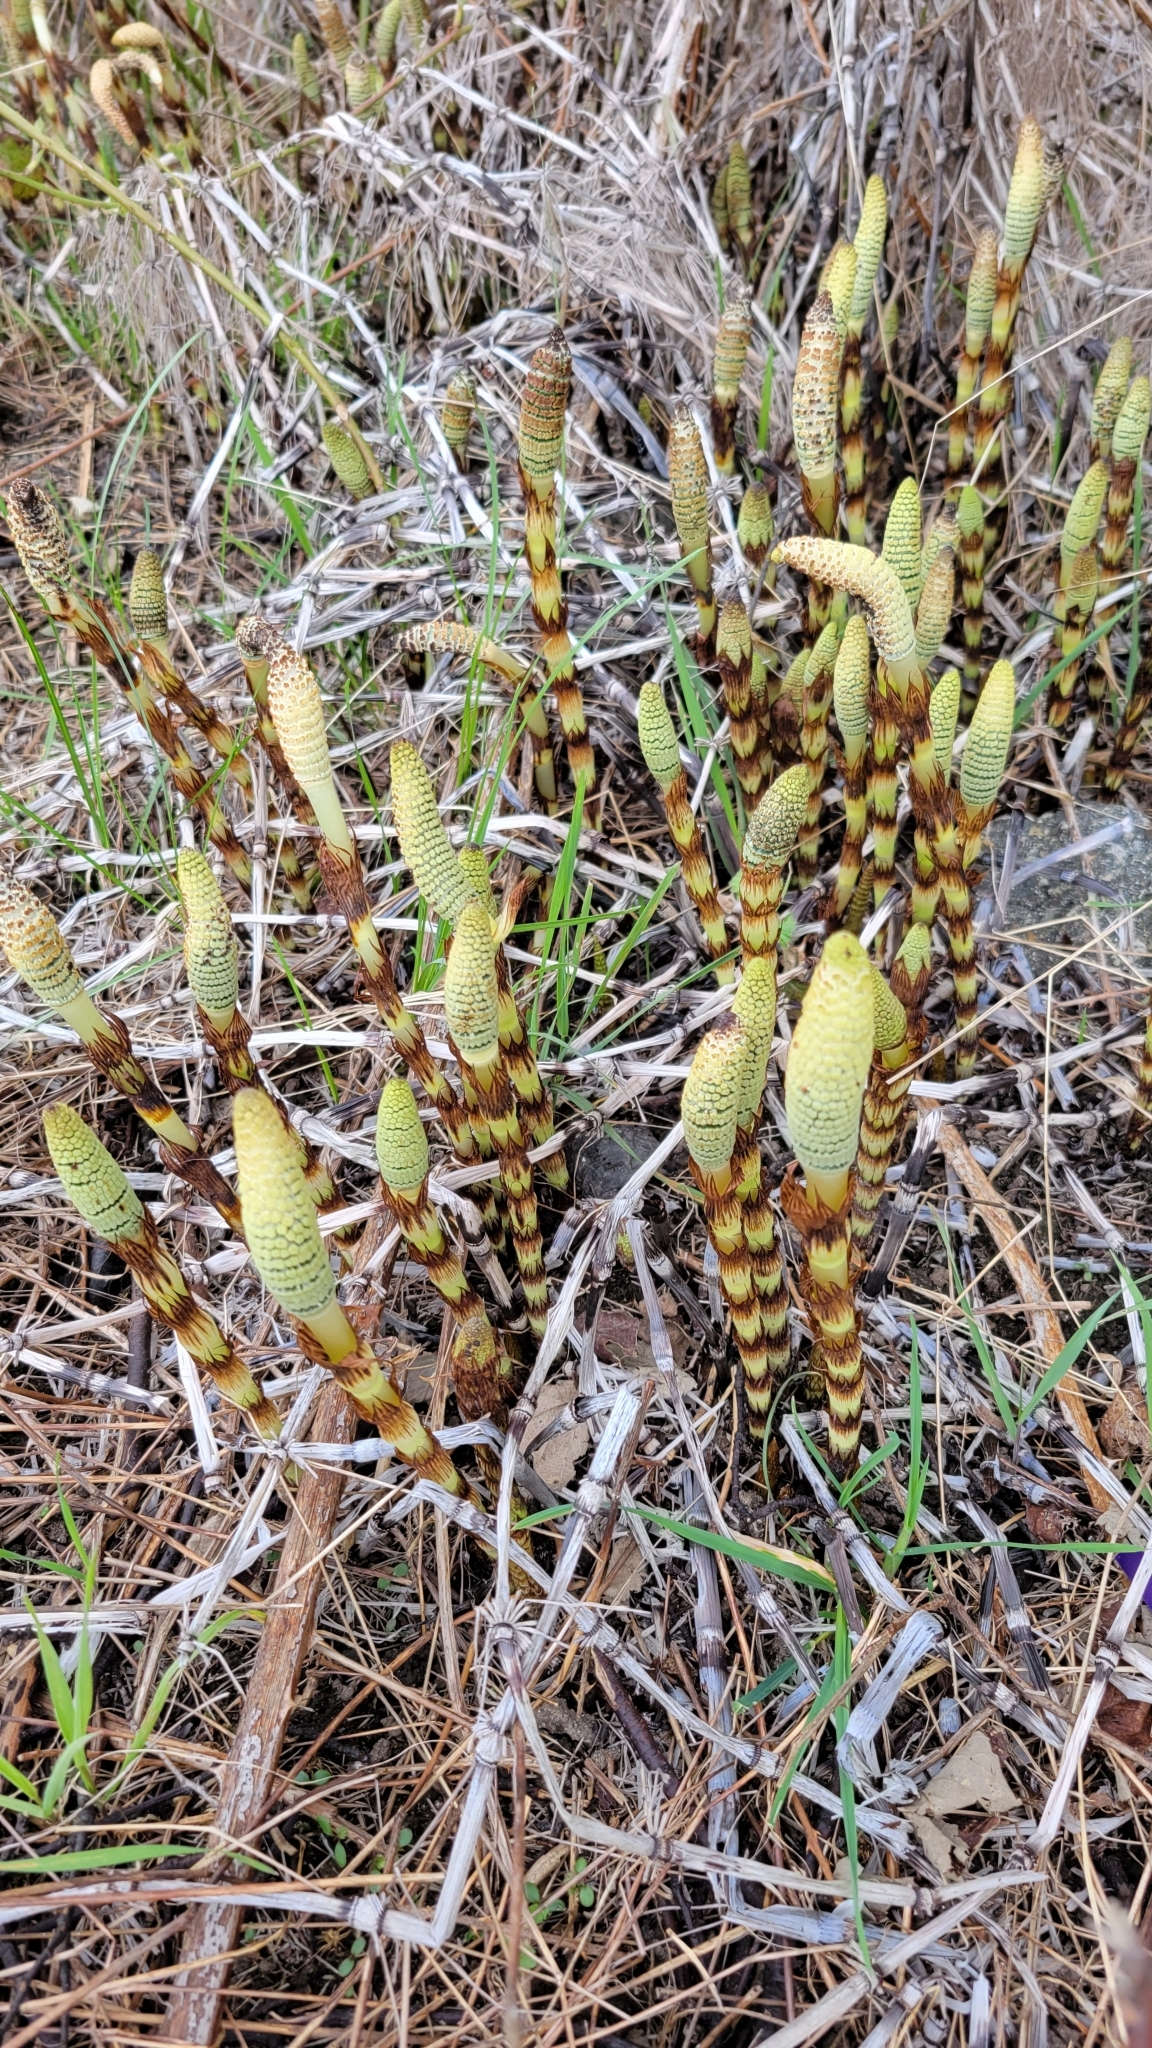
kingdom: Plantae
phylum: Tracheophyta
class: Polypodiopsida
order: Equisetales
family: Equisetaceae
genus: Equisetum
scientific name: Equisetum telmateia
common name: Great horsetail
